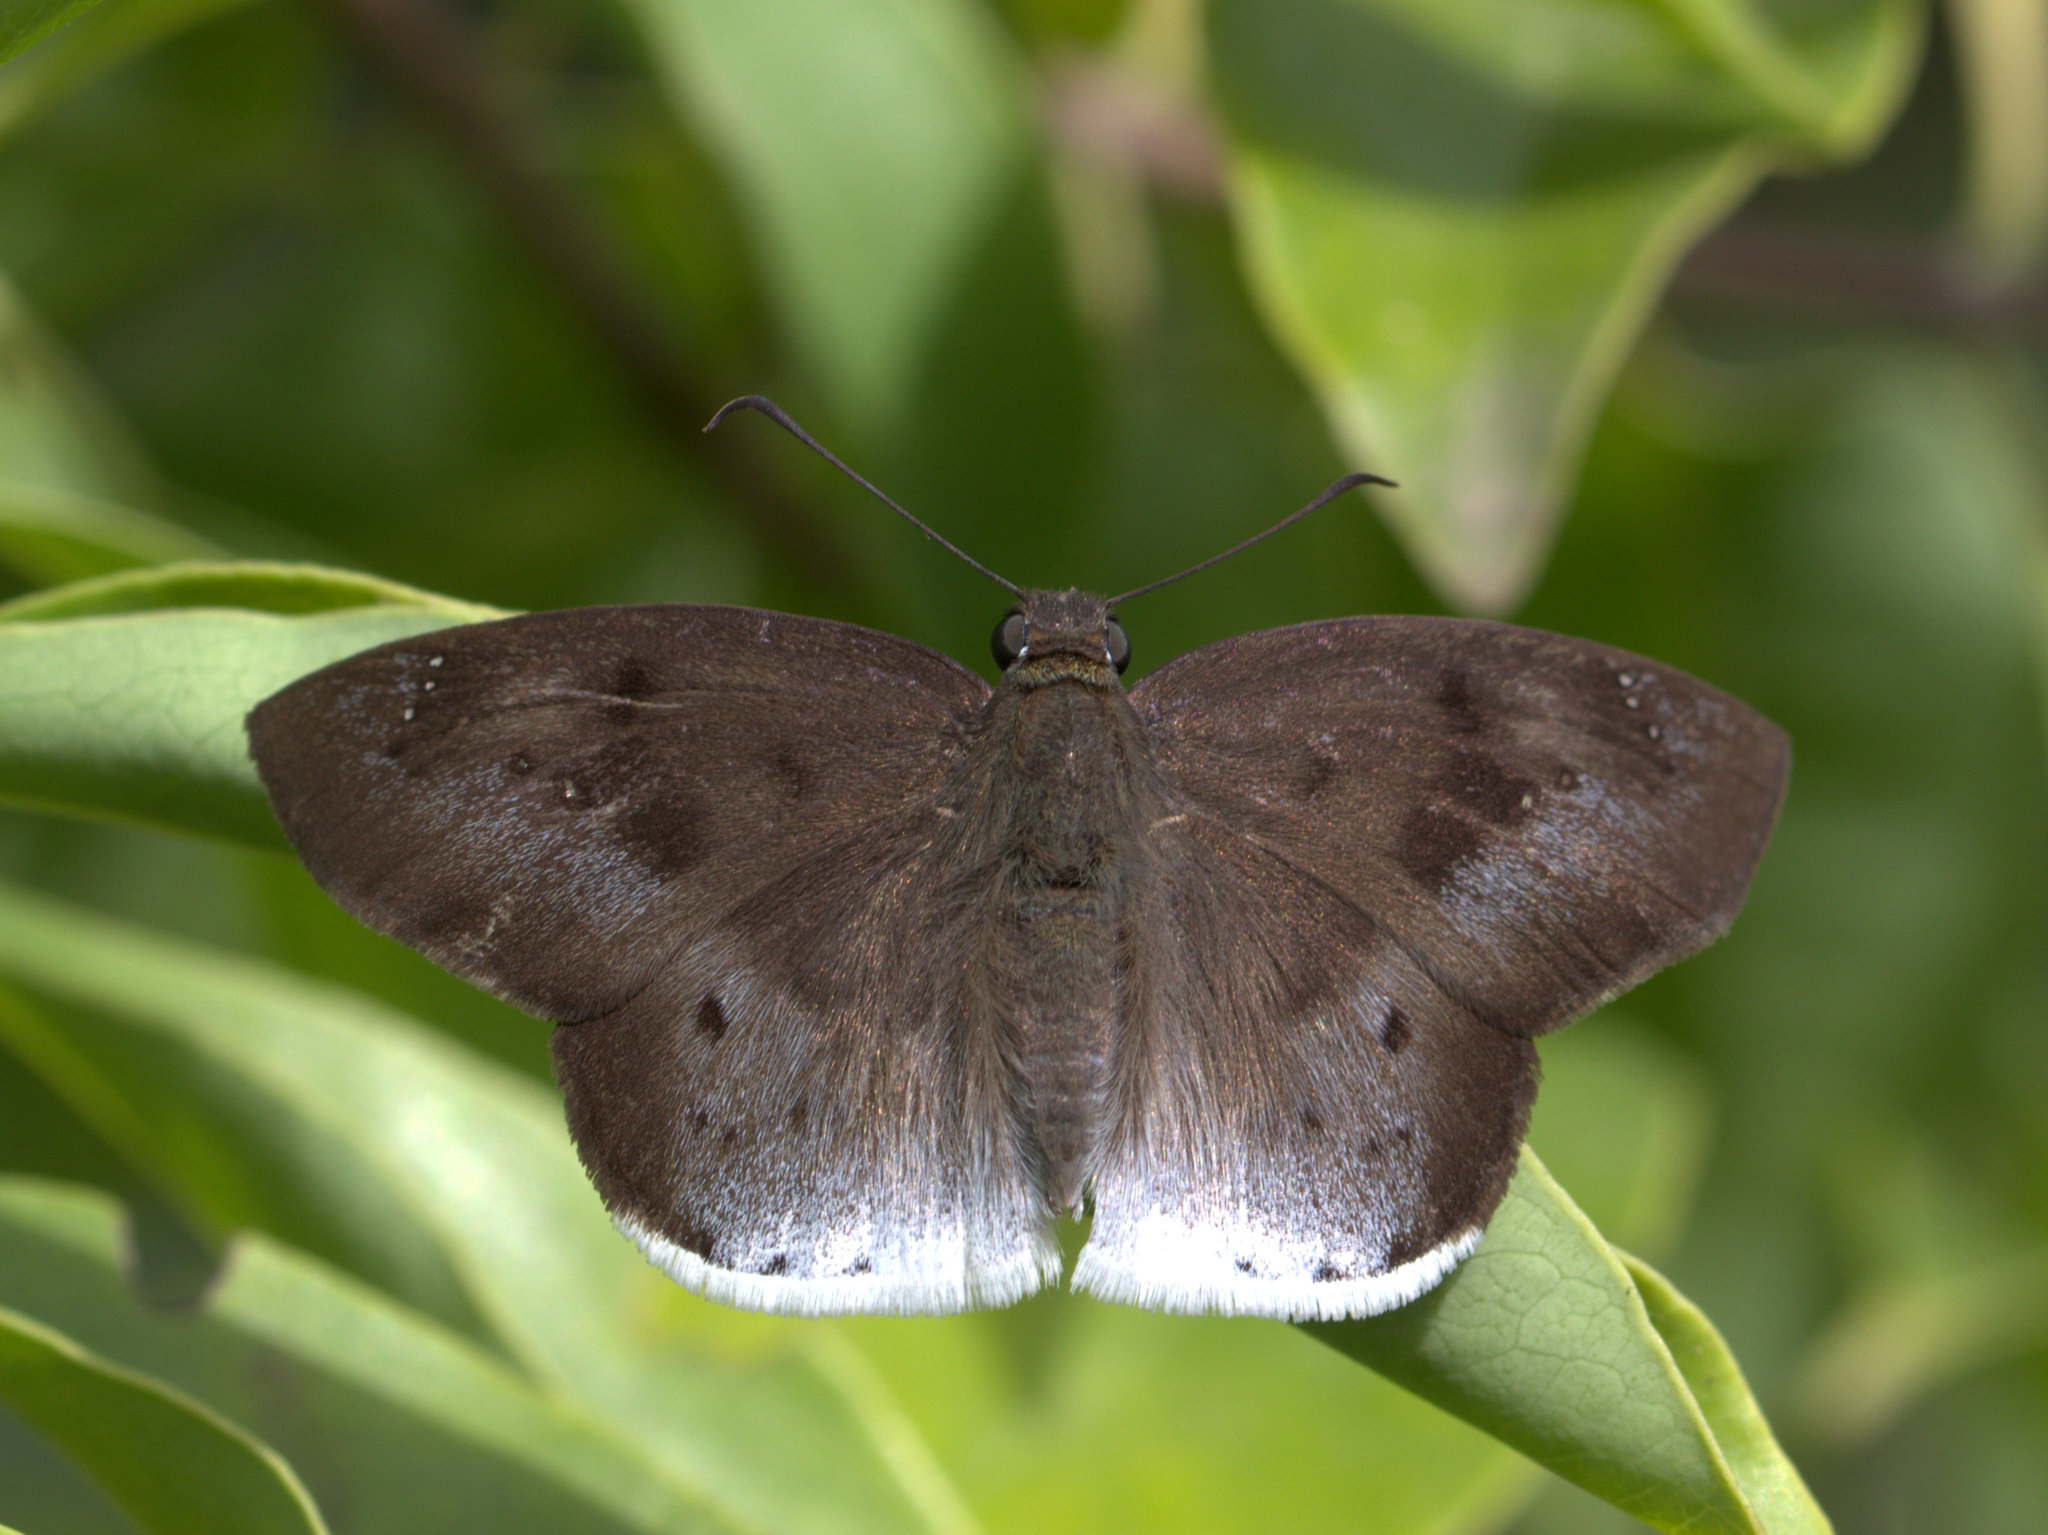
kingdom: Animalia
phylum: Arthropoda
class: Insecta
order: Lepidoptera
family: Hesperiidae
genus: Tagiades
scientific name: Tagiades japetus
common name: Pied flat
